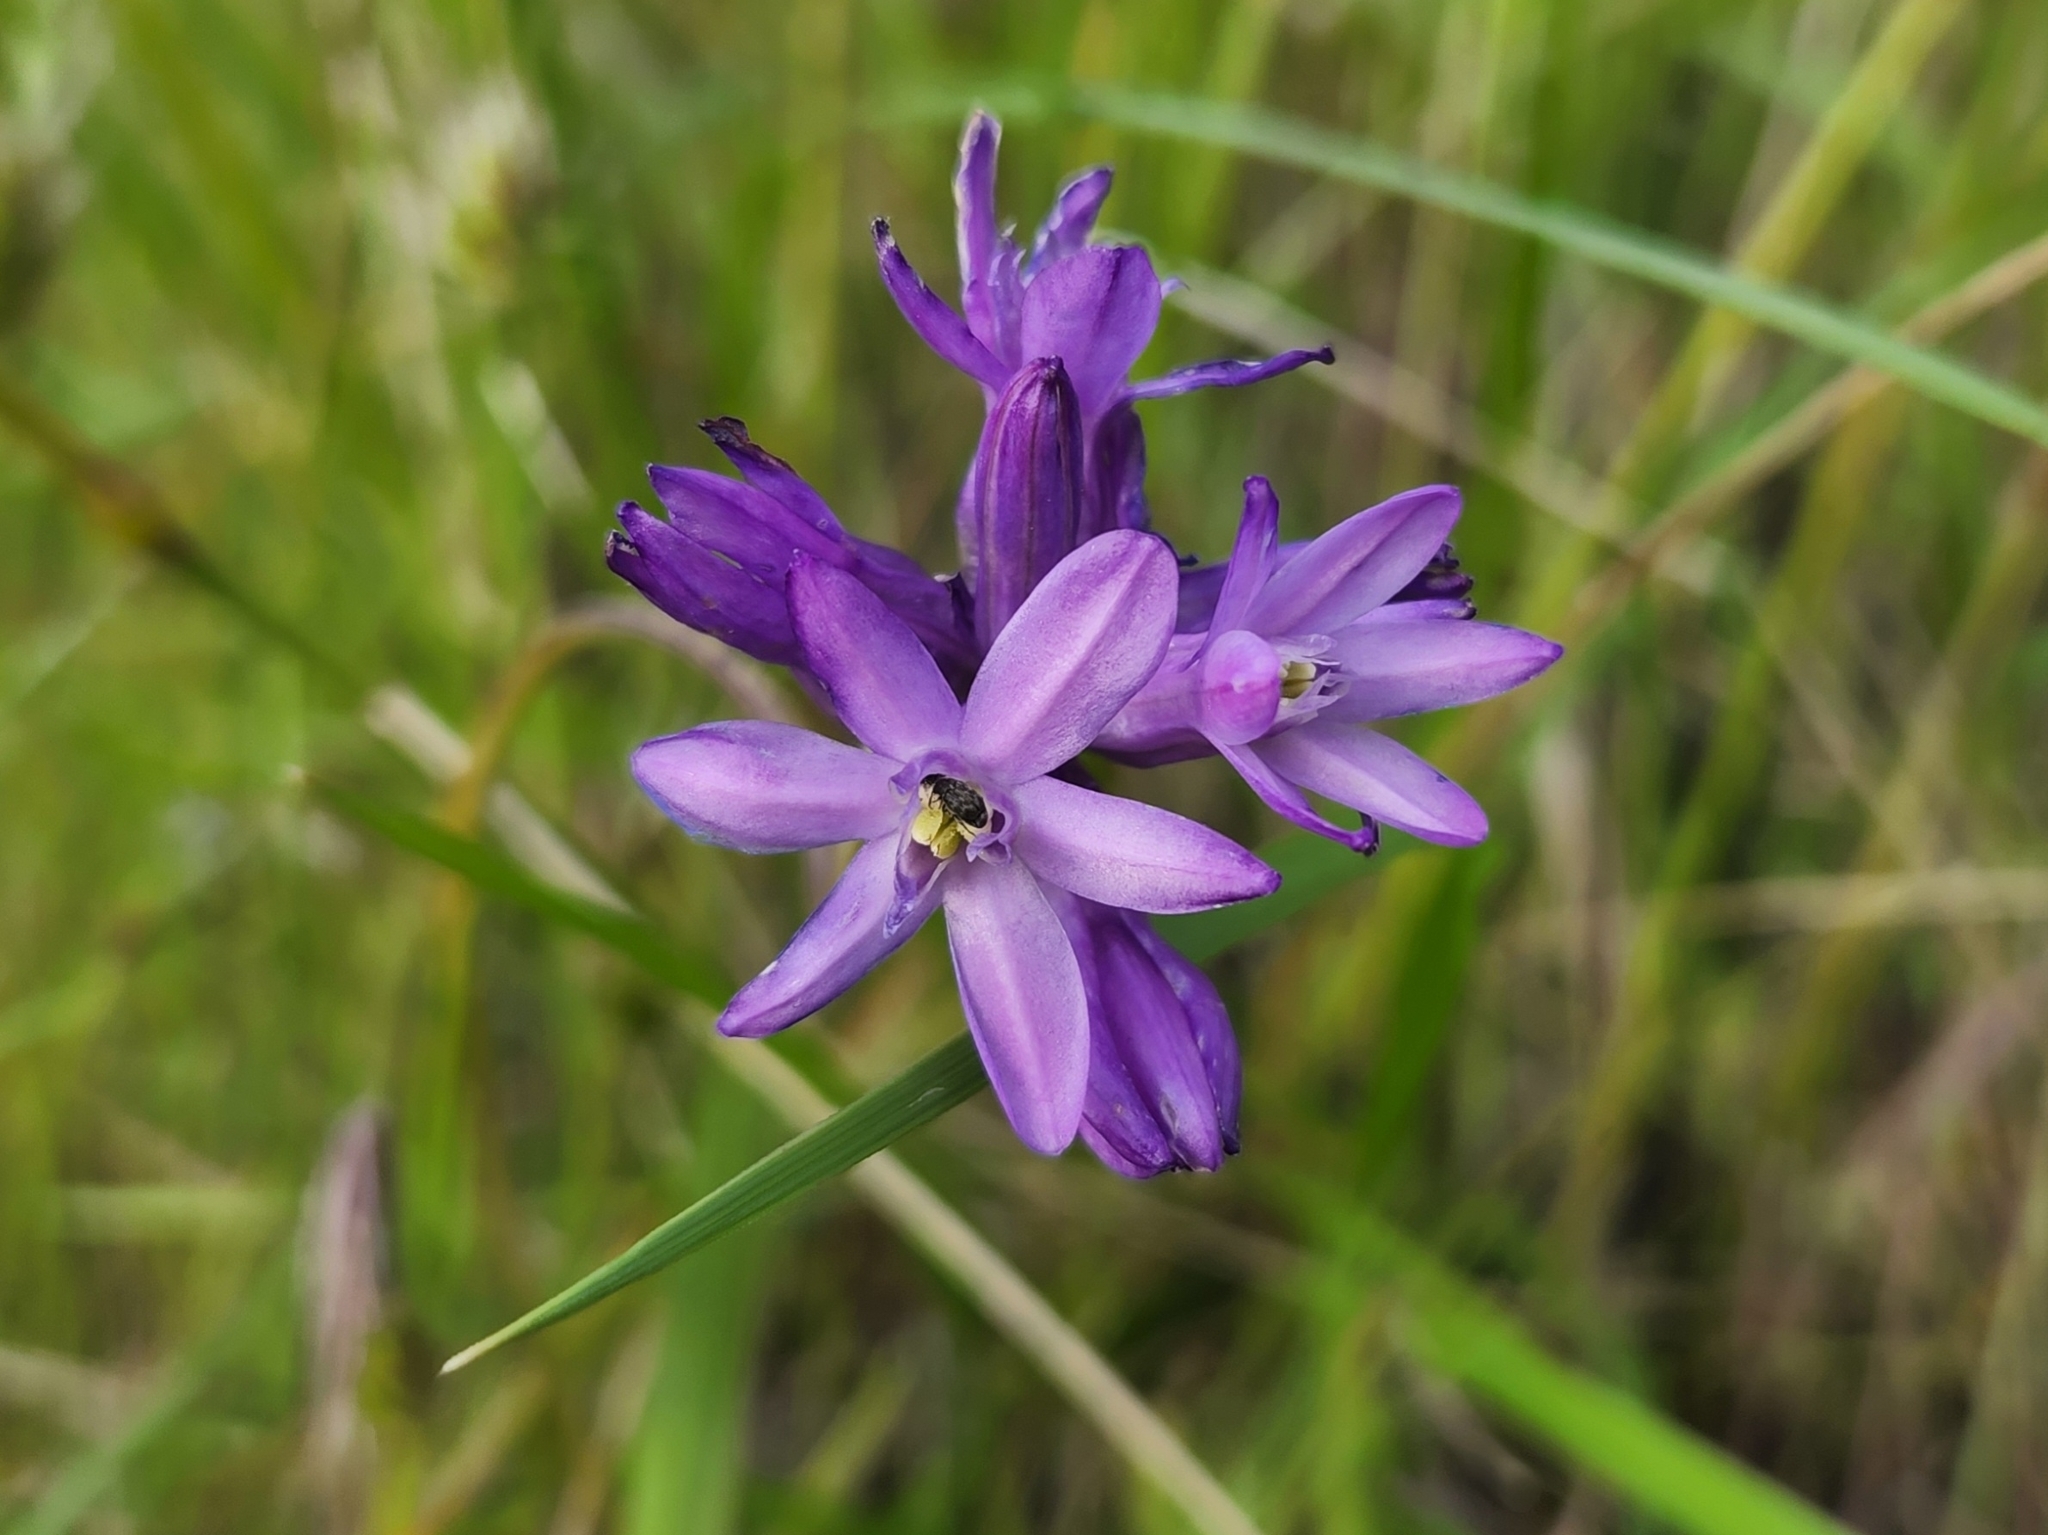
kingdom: Plantae
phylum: Tracheophyta
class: Liliopsida
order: Asparagales
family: Asparagaceae
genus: Dichelostemma
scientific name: Dichelostemma congestum
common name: Fork-tooth ookow
